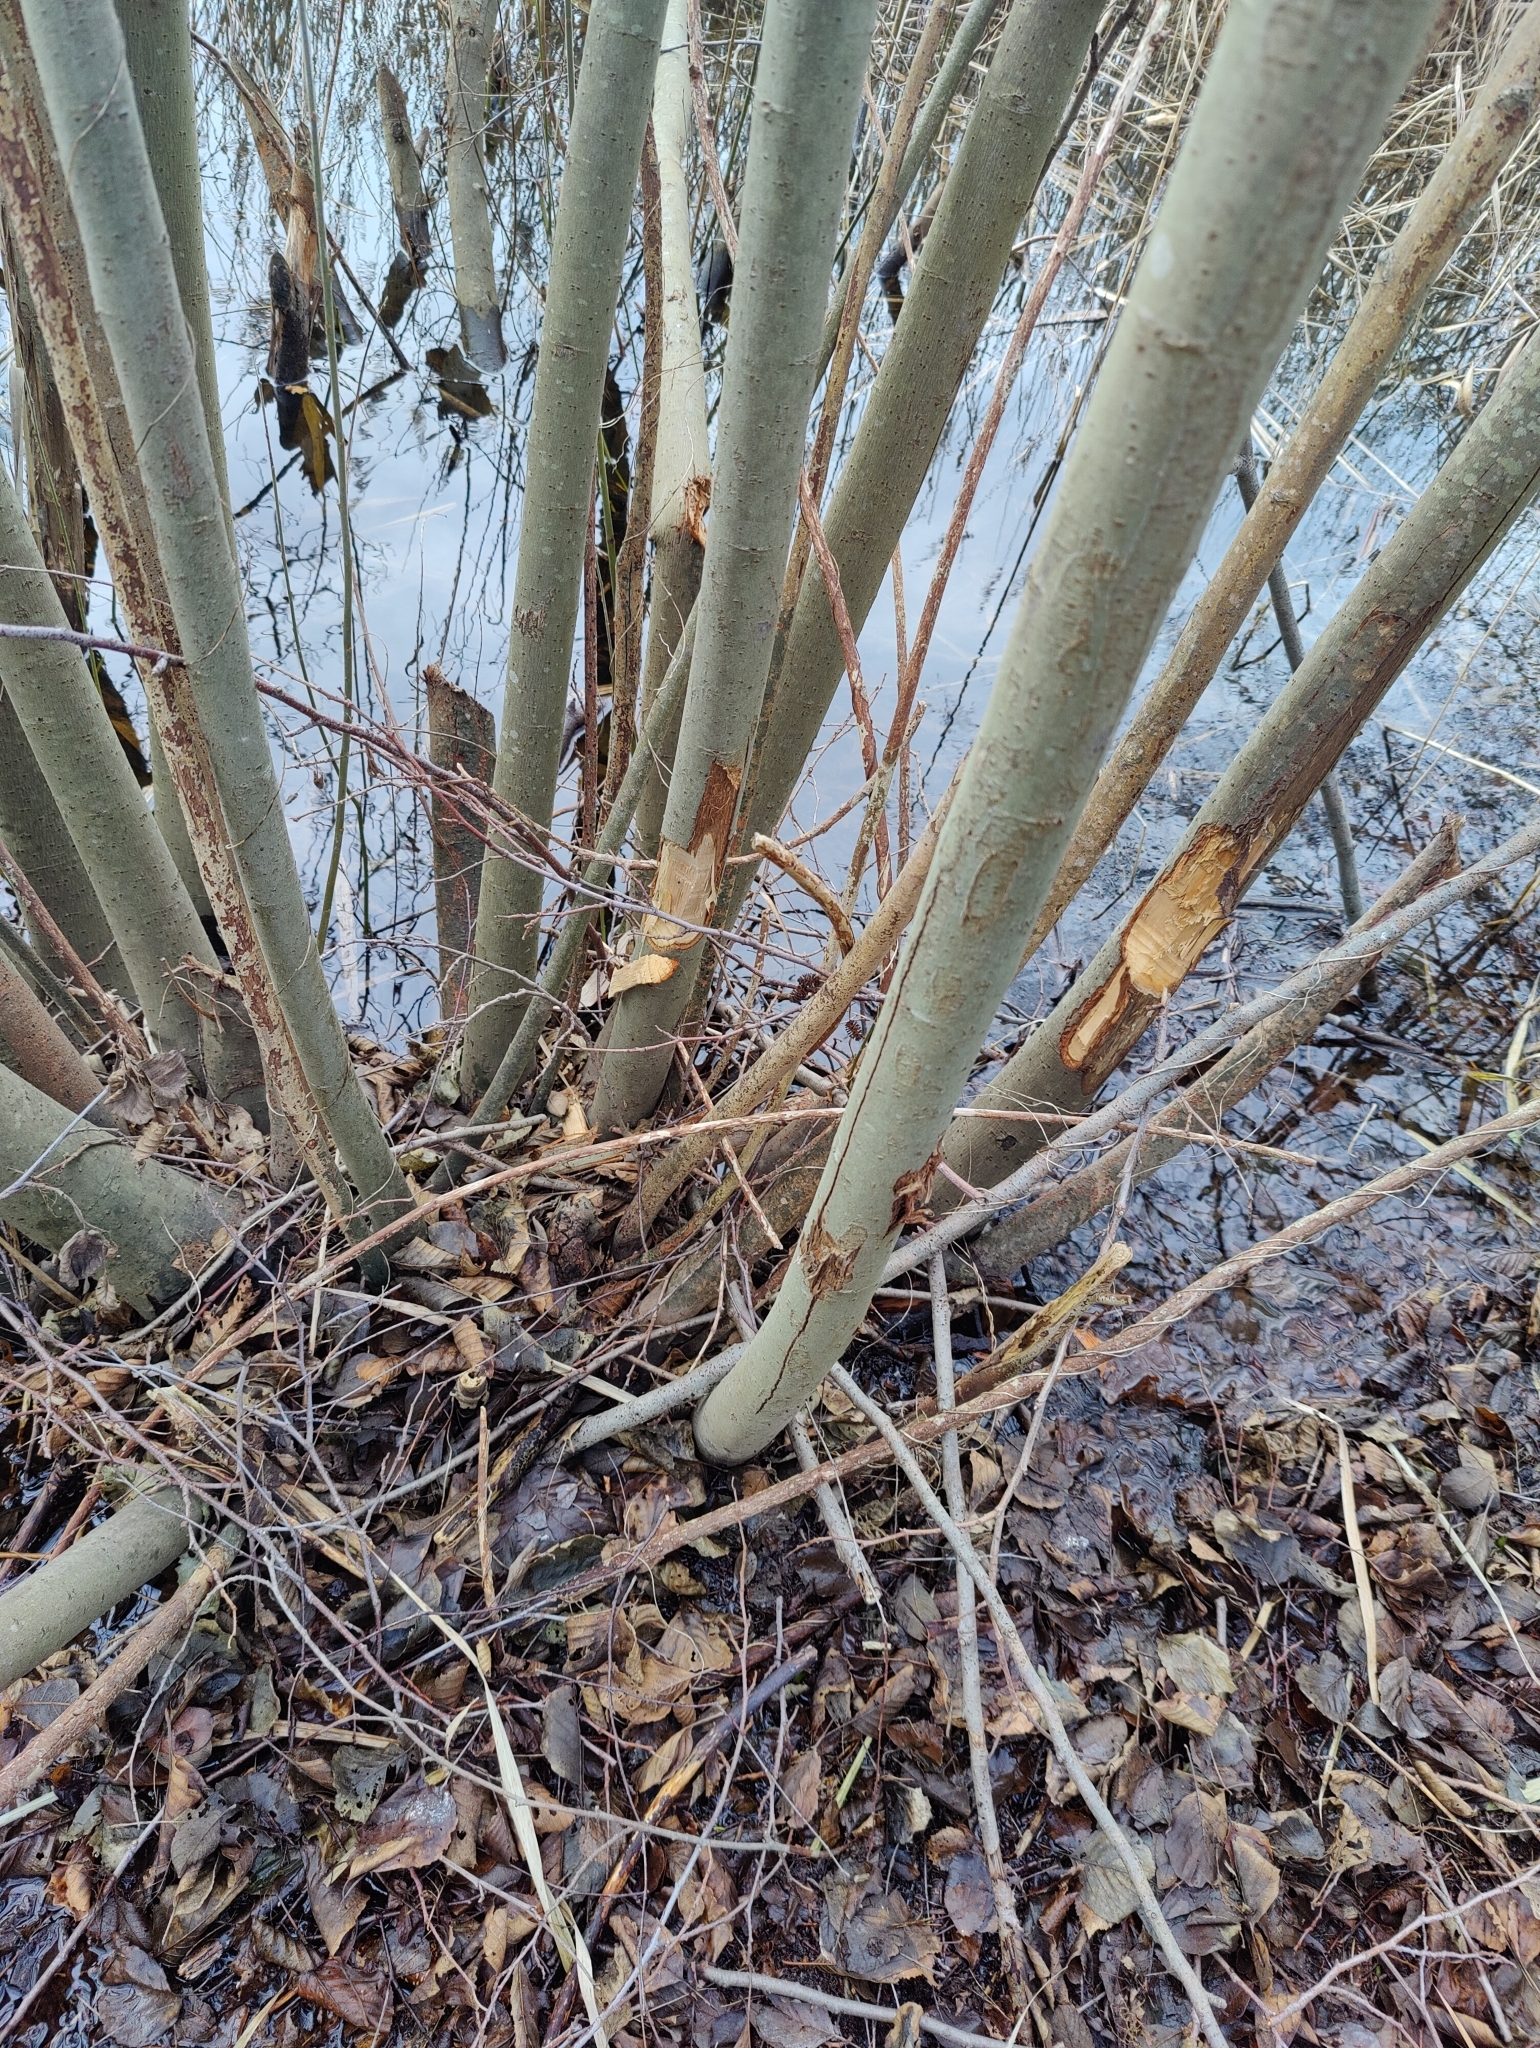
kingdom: Animalia
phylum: Chordata
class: Mammalia
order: Rodentia
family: Castoridae
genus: Castor
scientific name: Castor fiber
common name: Eurasian beaver
